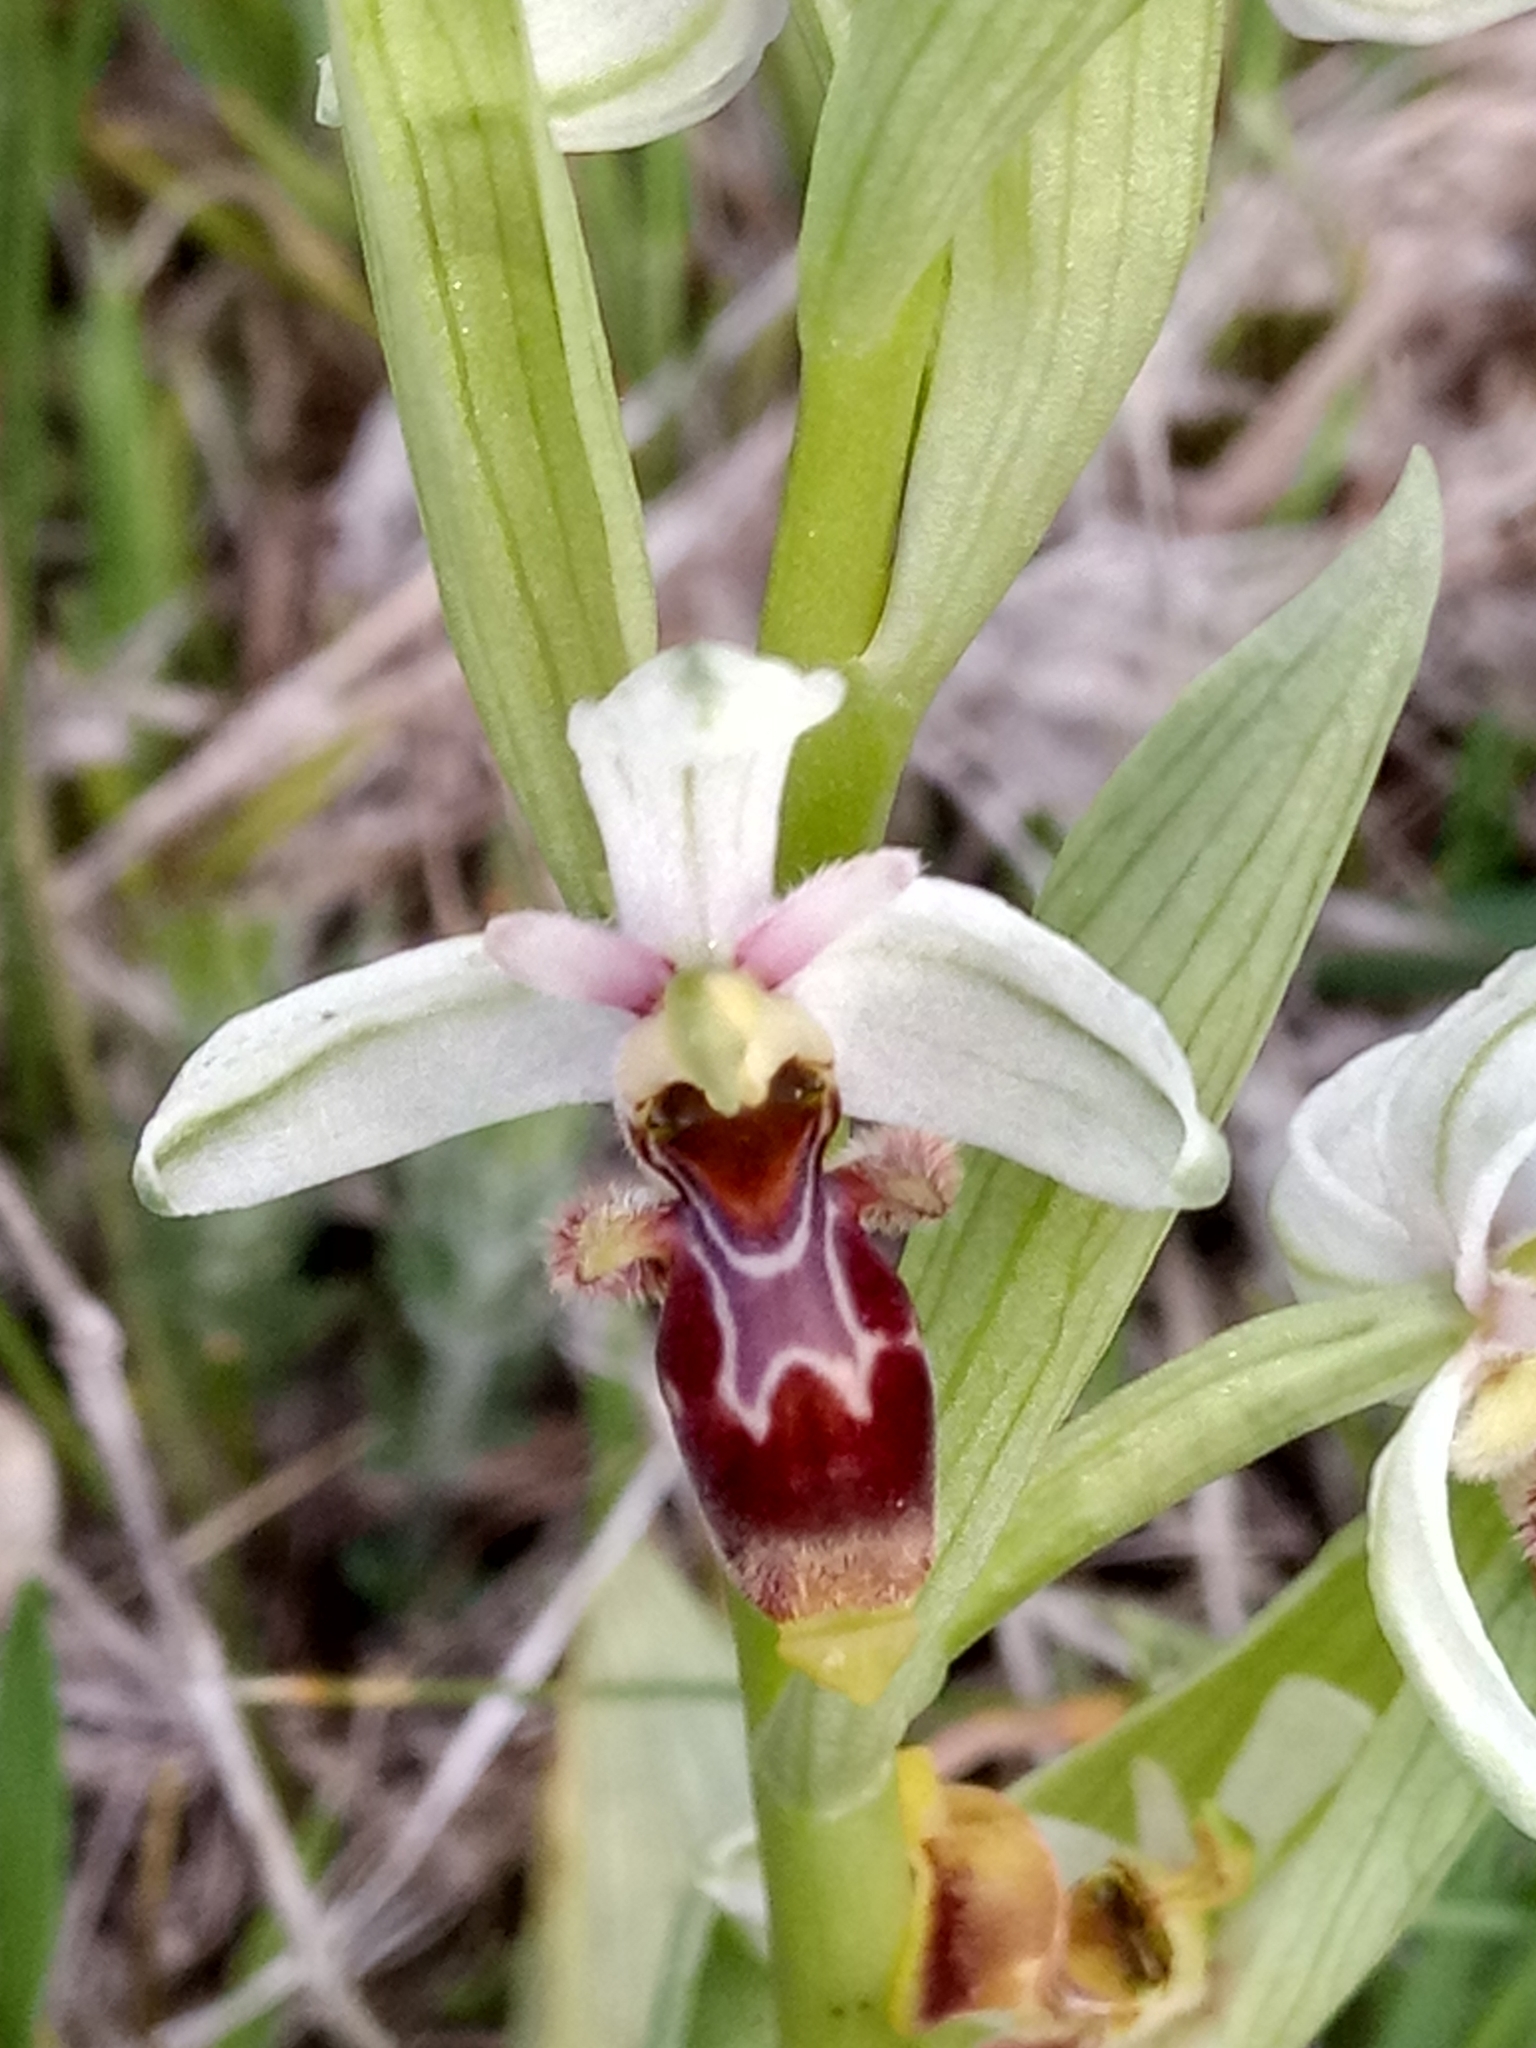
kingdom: Plantae
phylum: Tracheophyta
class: Liliopsida
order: Asparagales
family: Orchidaceae
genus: Ophrys
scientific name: Ophrys scolopax
